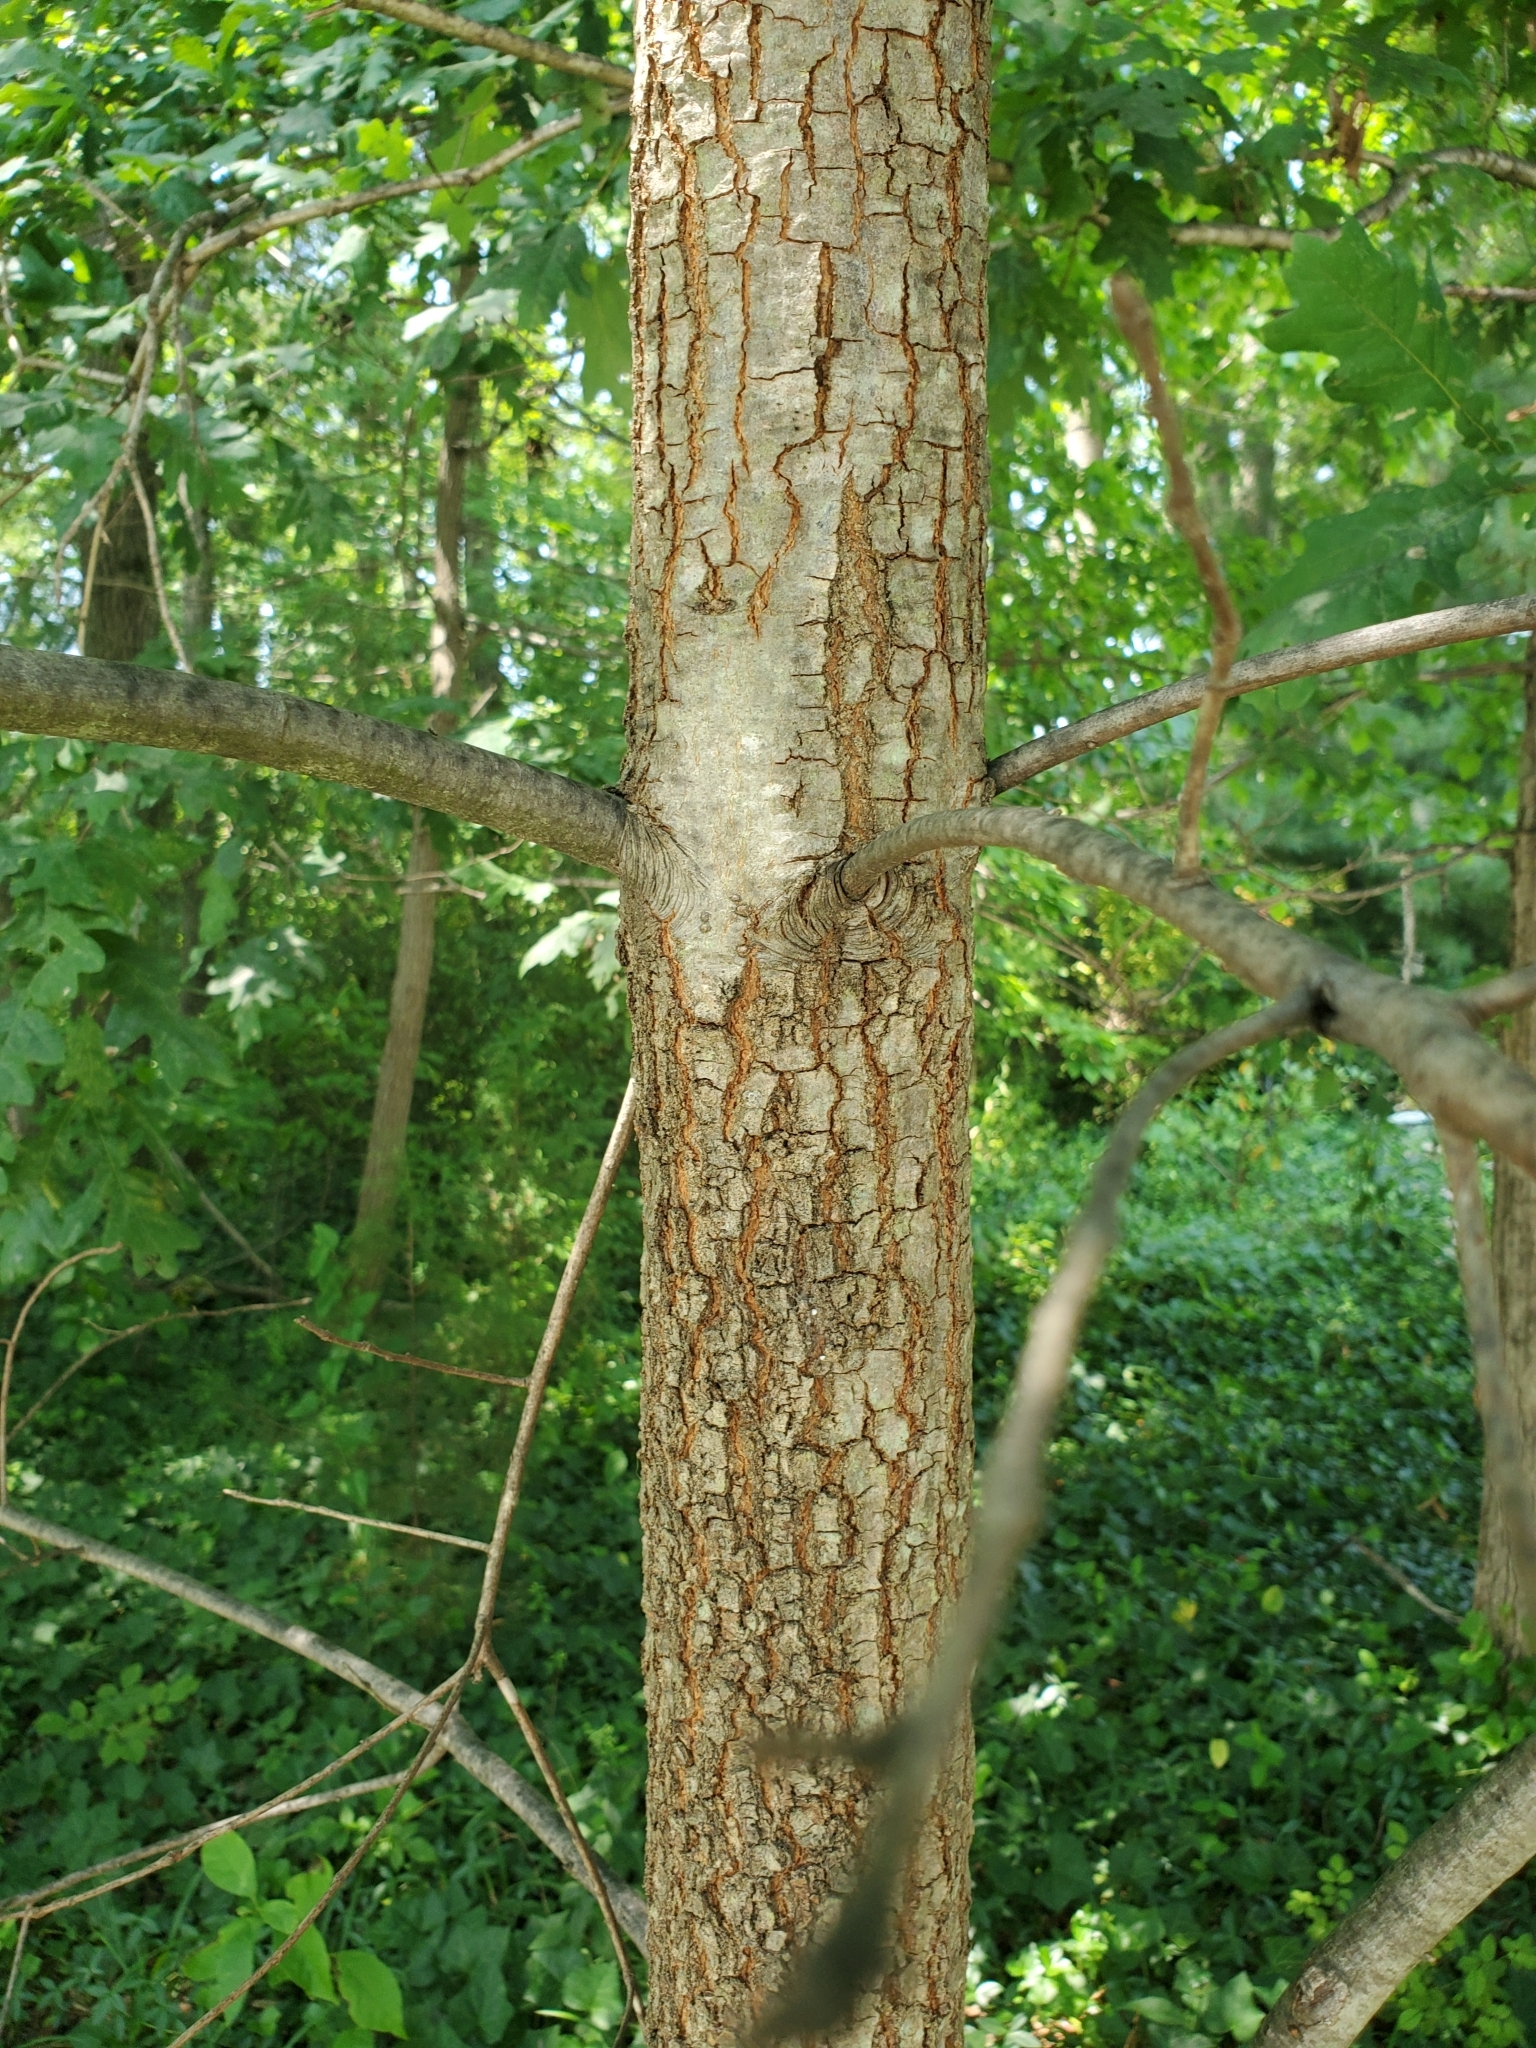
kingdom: Plantae
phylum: Tracheophyta
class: Magnoliopsida
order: Fagales
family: Fagaceae
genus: Quercus
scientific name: Quercus falcata
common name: Southern red oak
